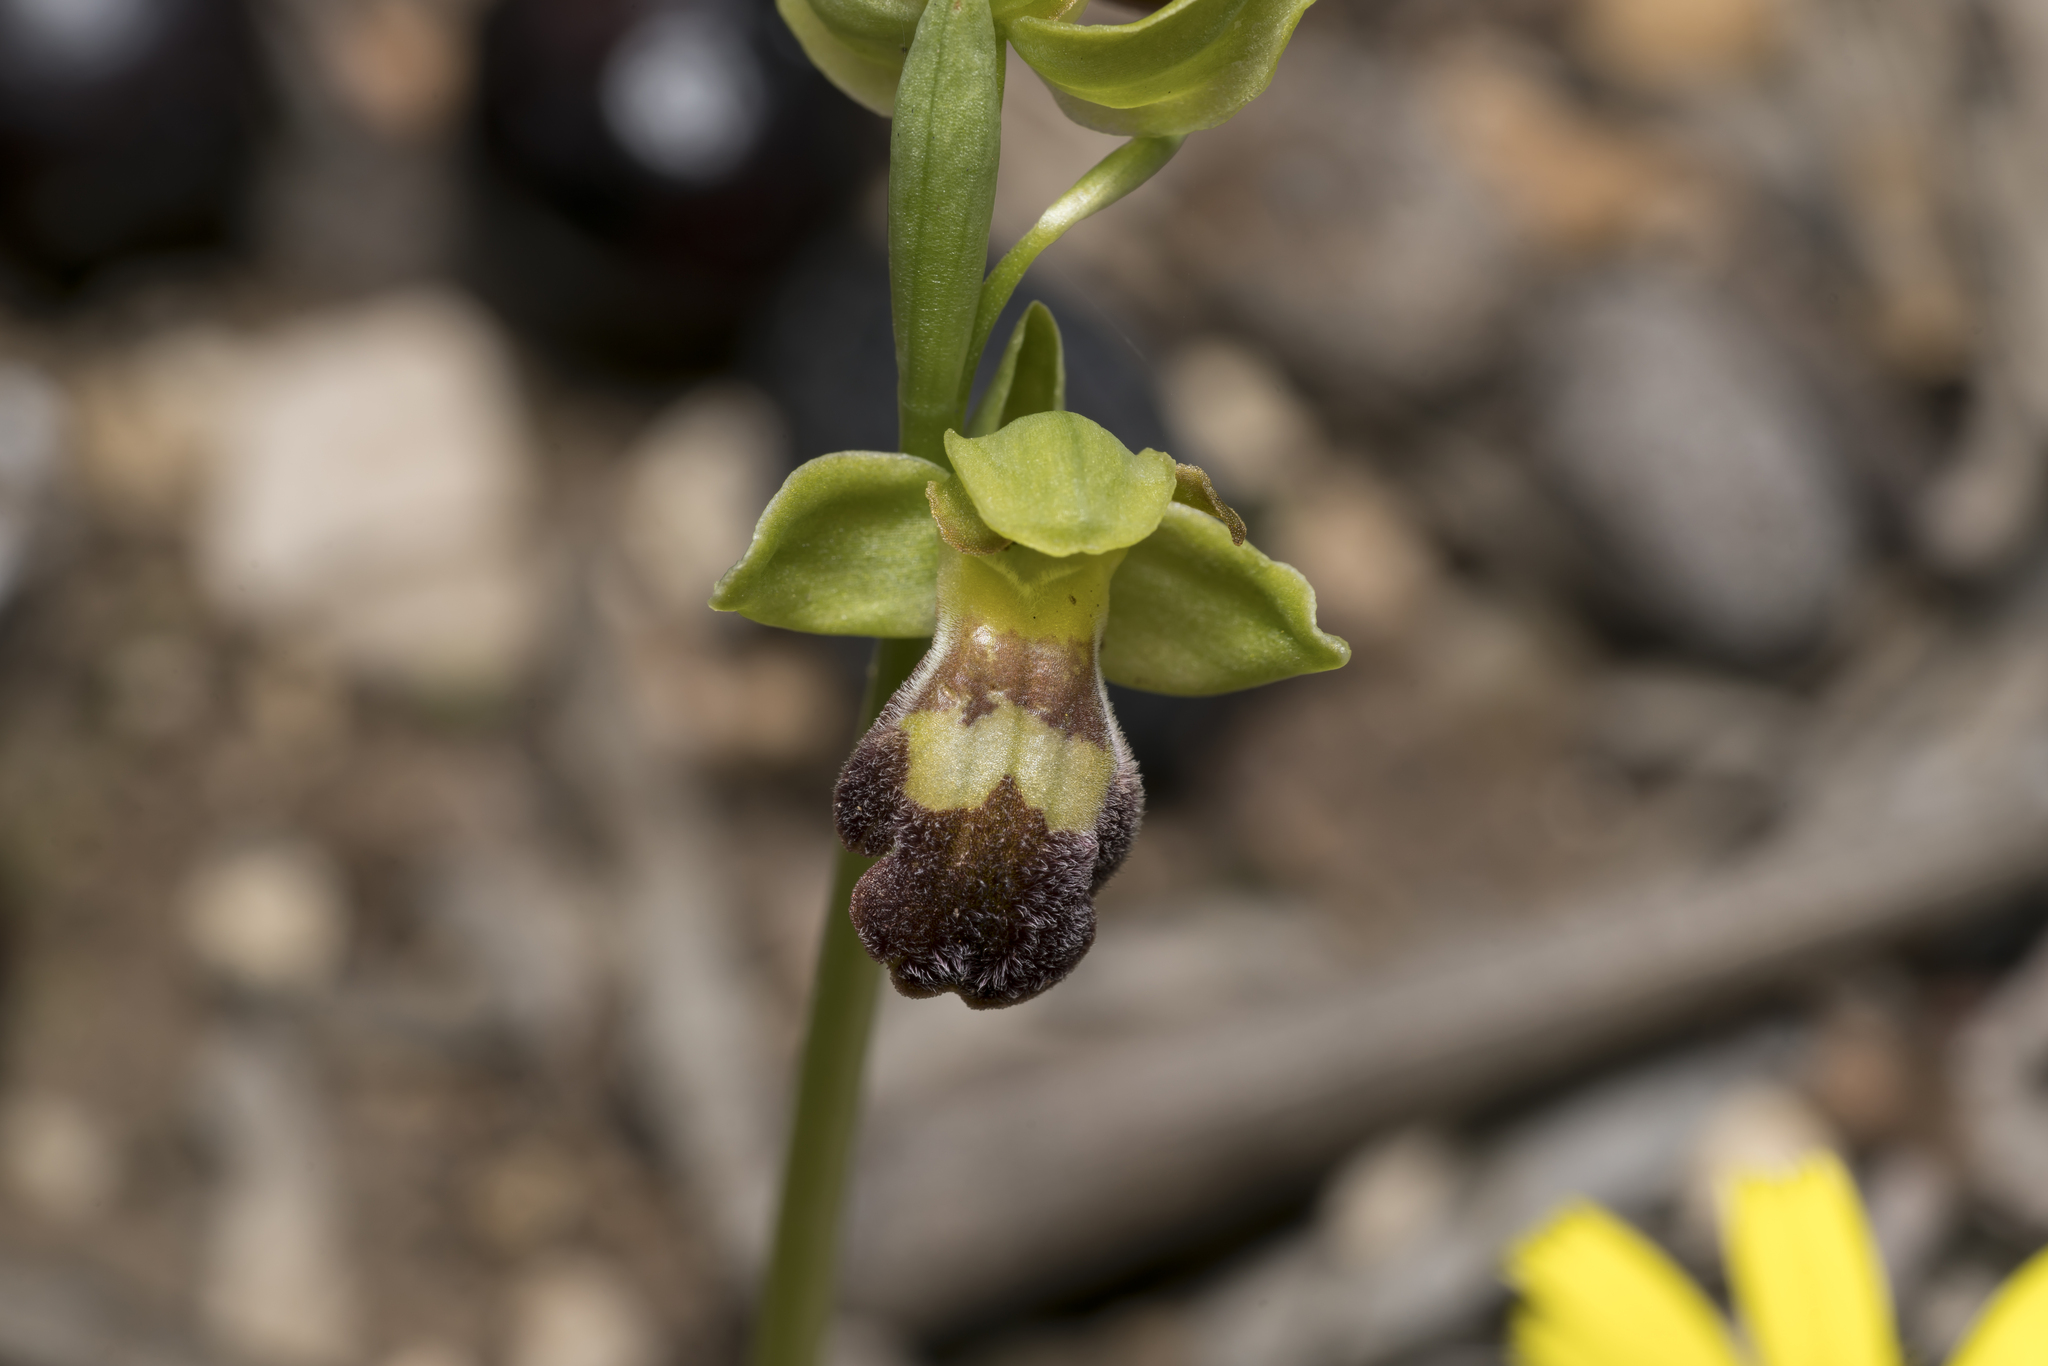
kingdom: Plantae
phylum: Tracheophyta
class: Liliopsida
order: Asparagales
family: Orchidaceae
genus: Ophrys
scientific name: Ophrys brigittae
